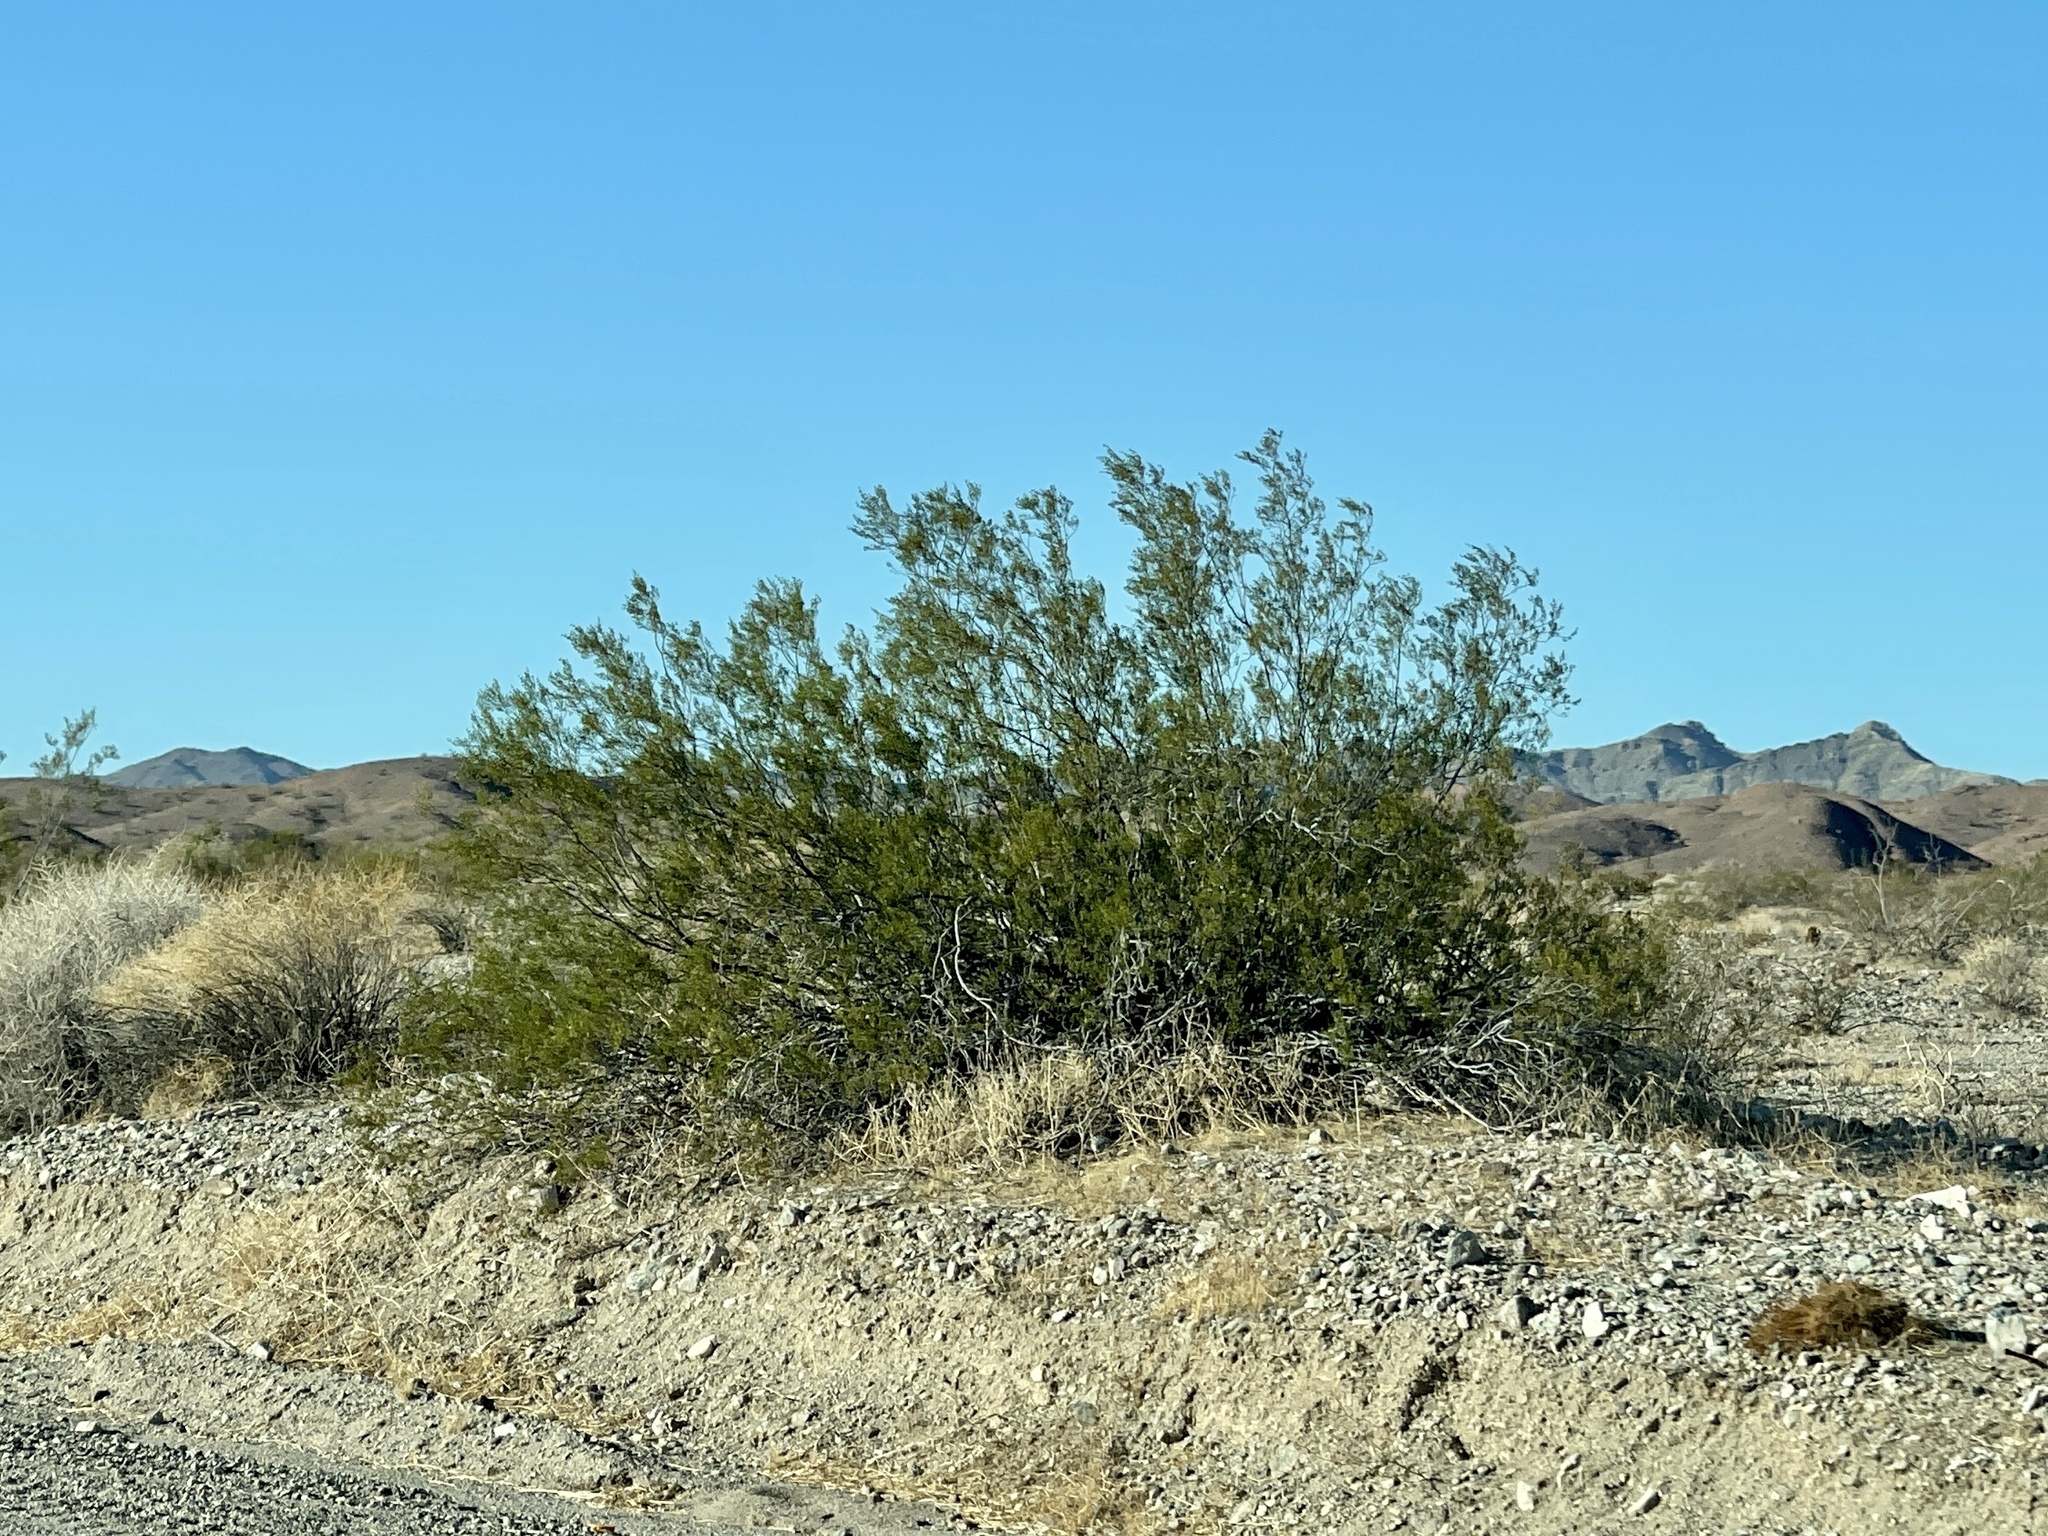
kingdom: Plantae
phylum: Tracheophyta
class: Magnoliopsida
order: Zygophyllales
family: Zygophyllaceae
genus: Larrea
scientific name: Larrea tridentata
